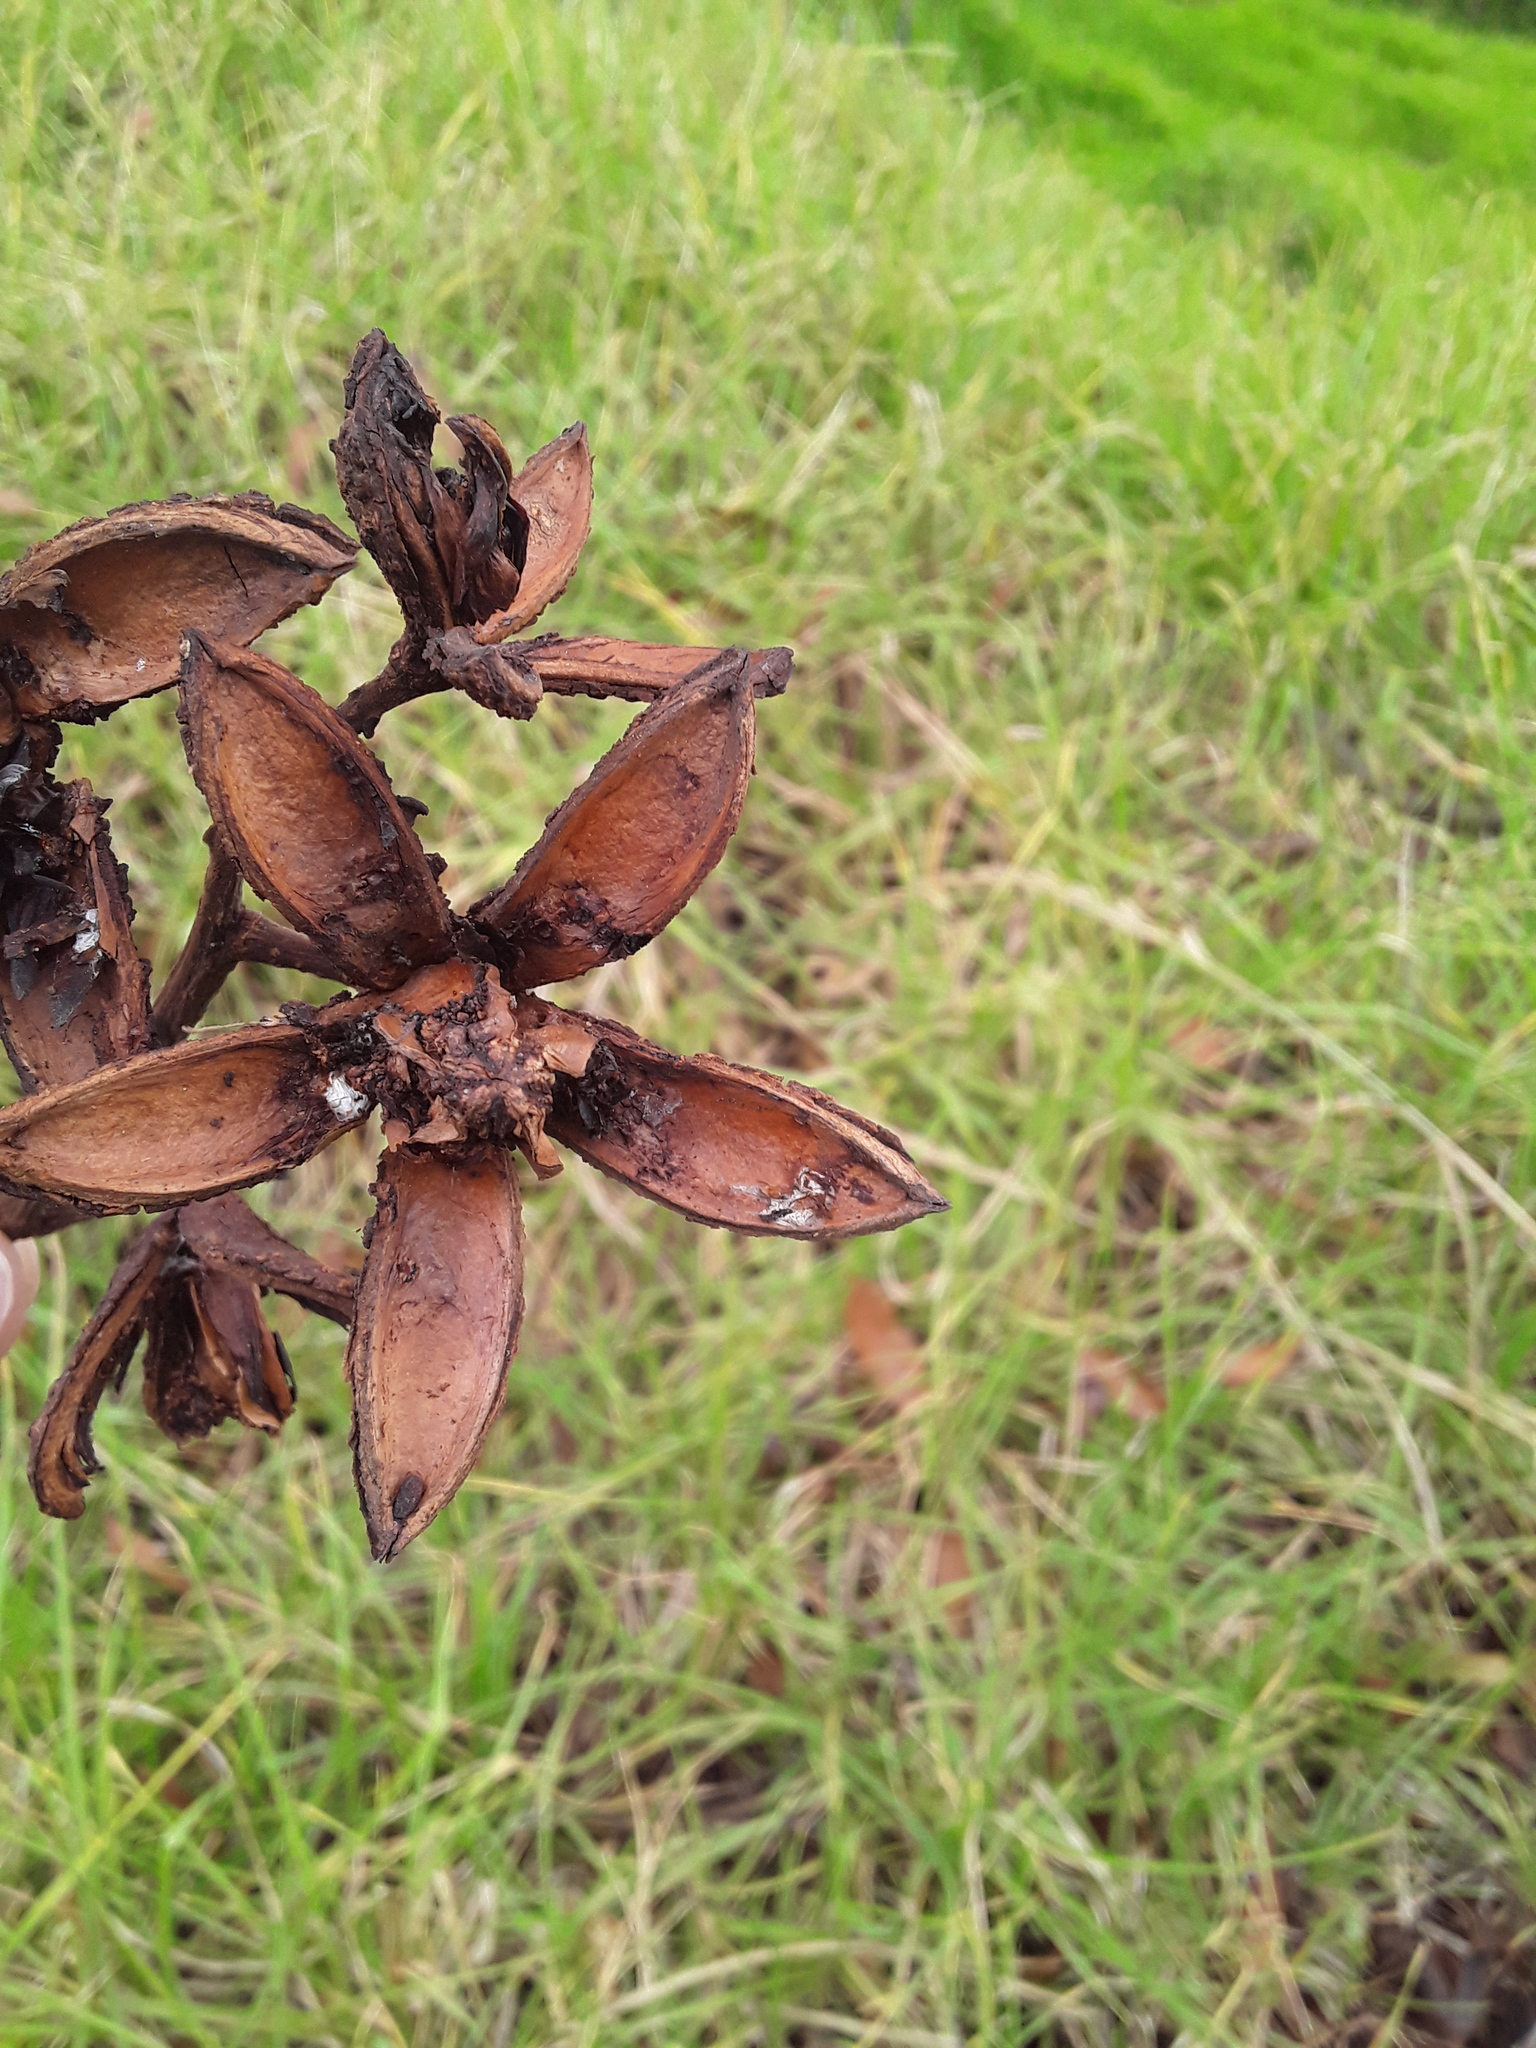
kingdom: Plantae
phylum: Tracheophyta
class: Magnoliopsida
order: Sapindales
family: Meliaceae
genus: Cedrela
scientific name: Cedrela montana
